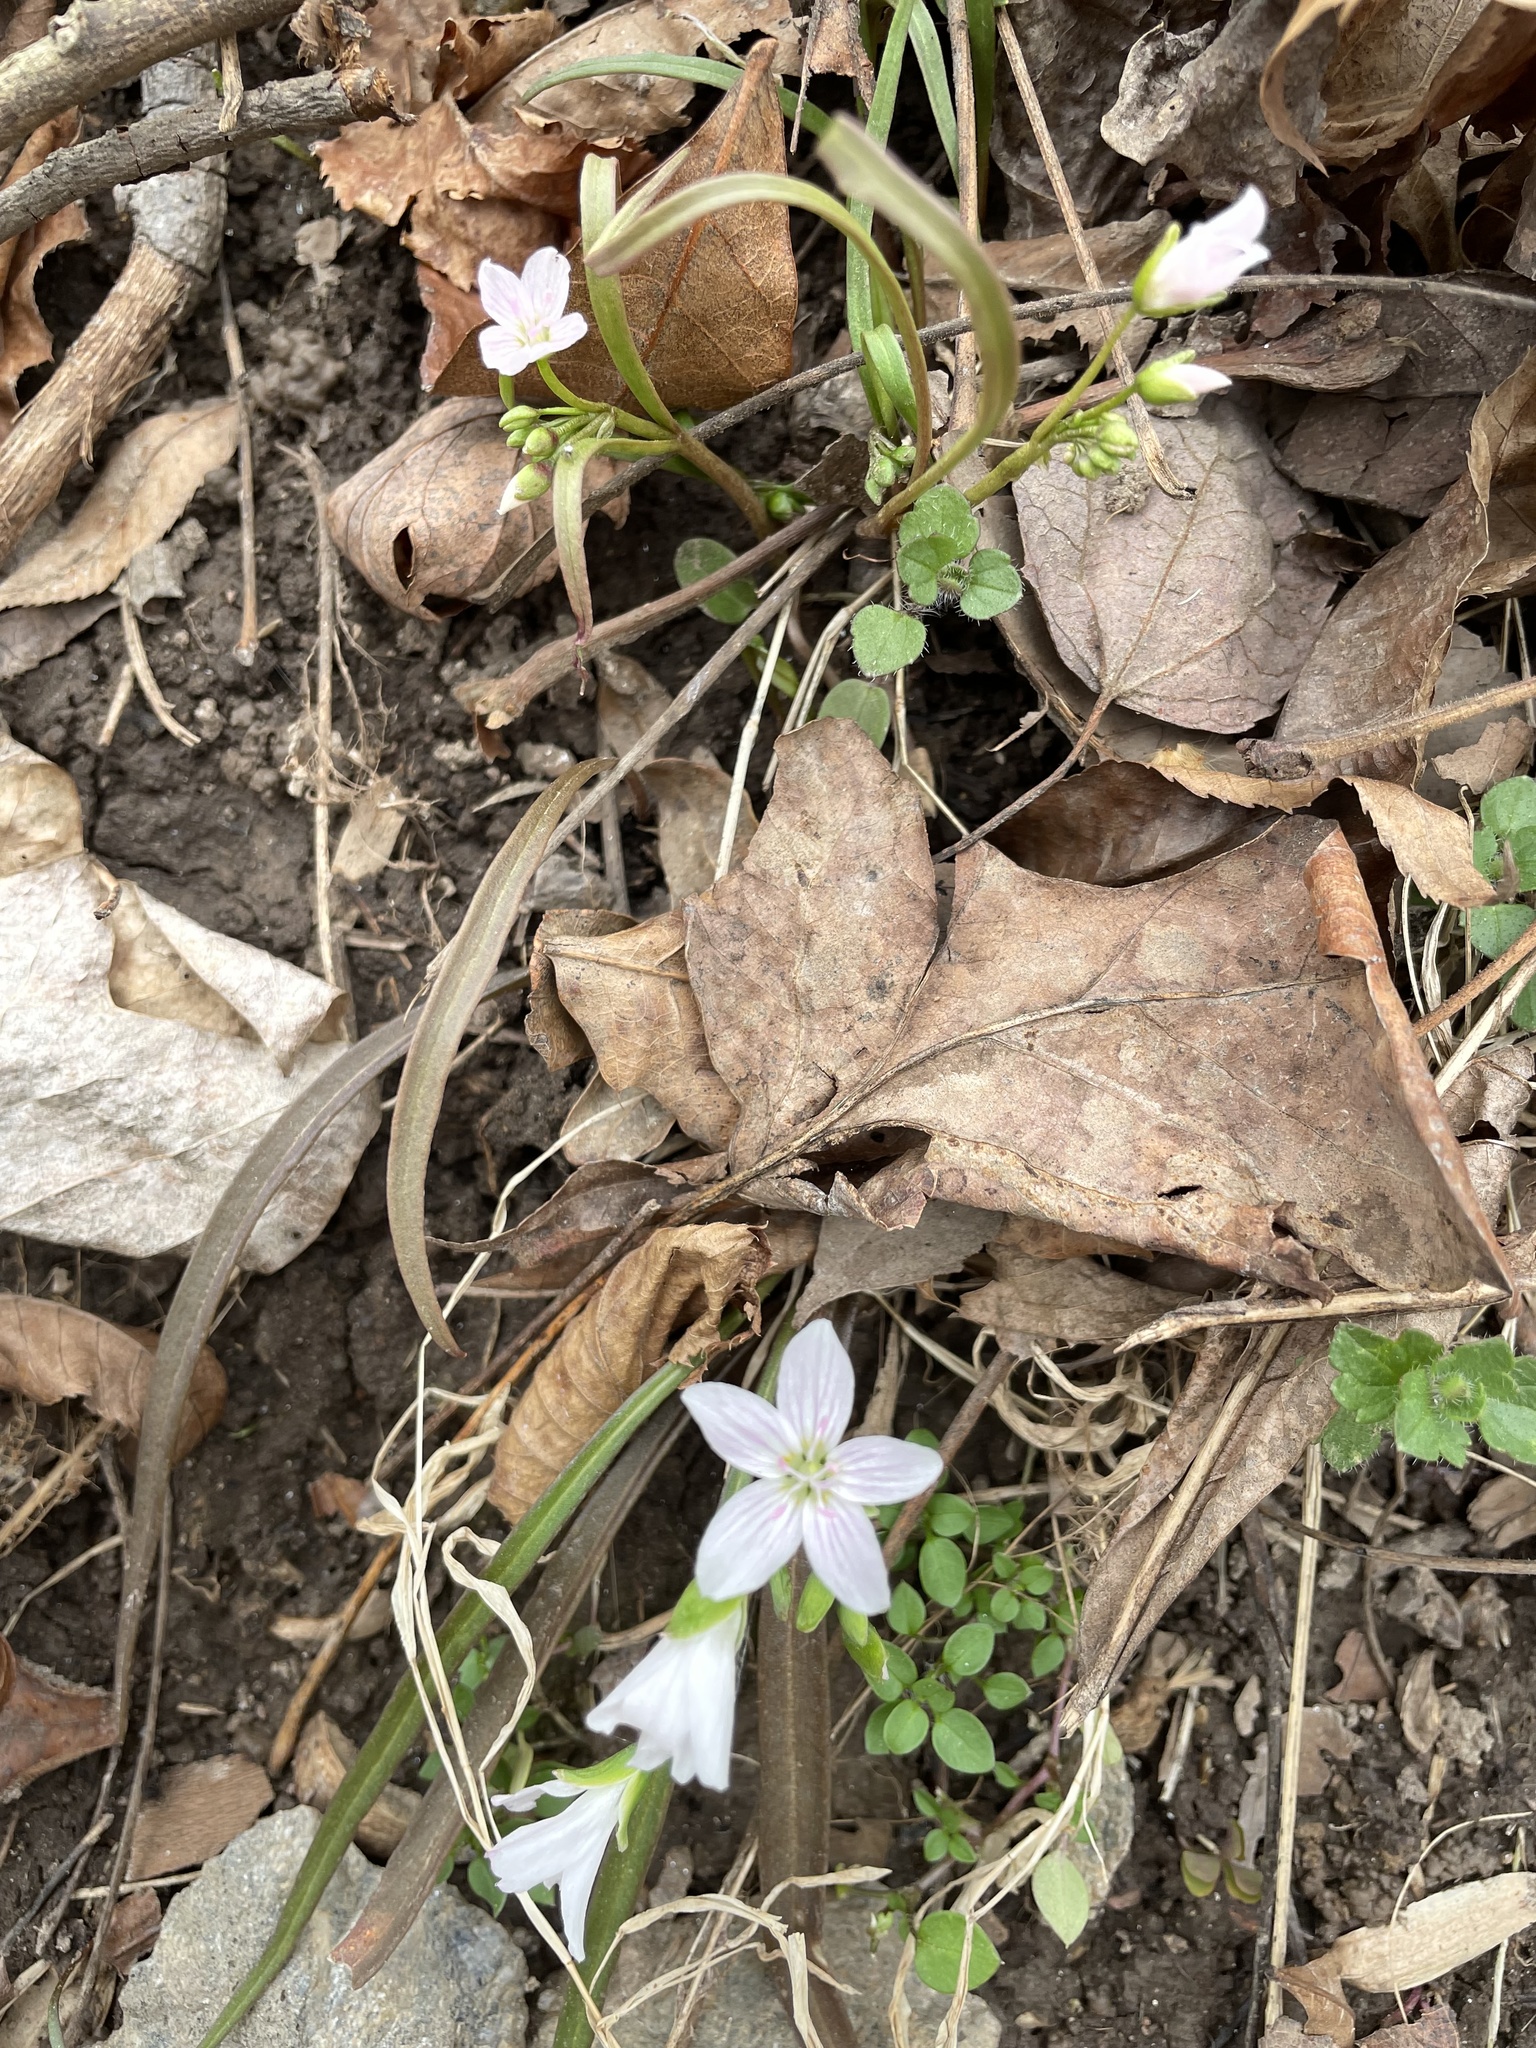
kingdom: Plantae
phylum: Tracheophyta
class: Magnoliopsida
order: Caryophyllales
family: Montiaceae
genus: Claytonia
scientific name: Claytonia virginica
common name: Virginia springbeauty
